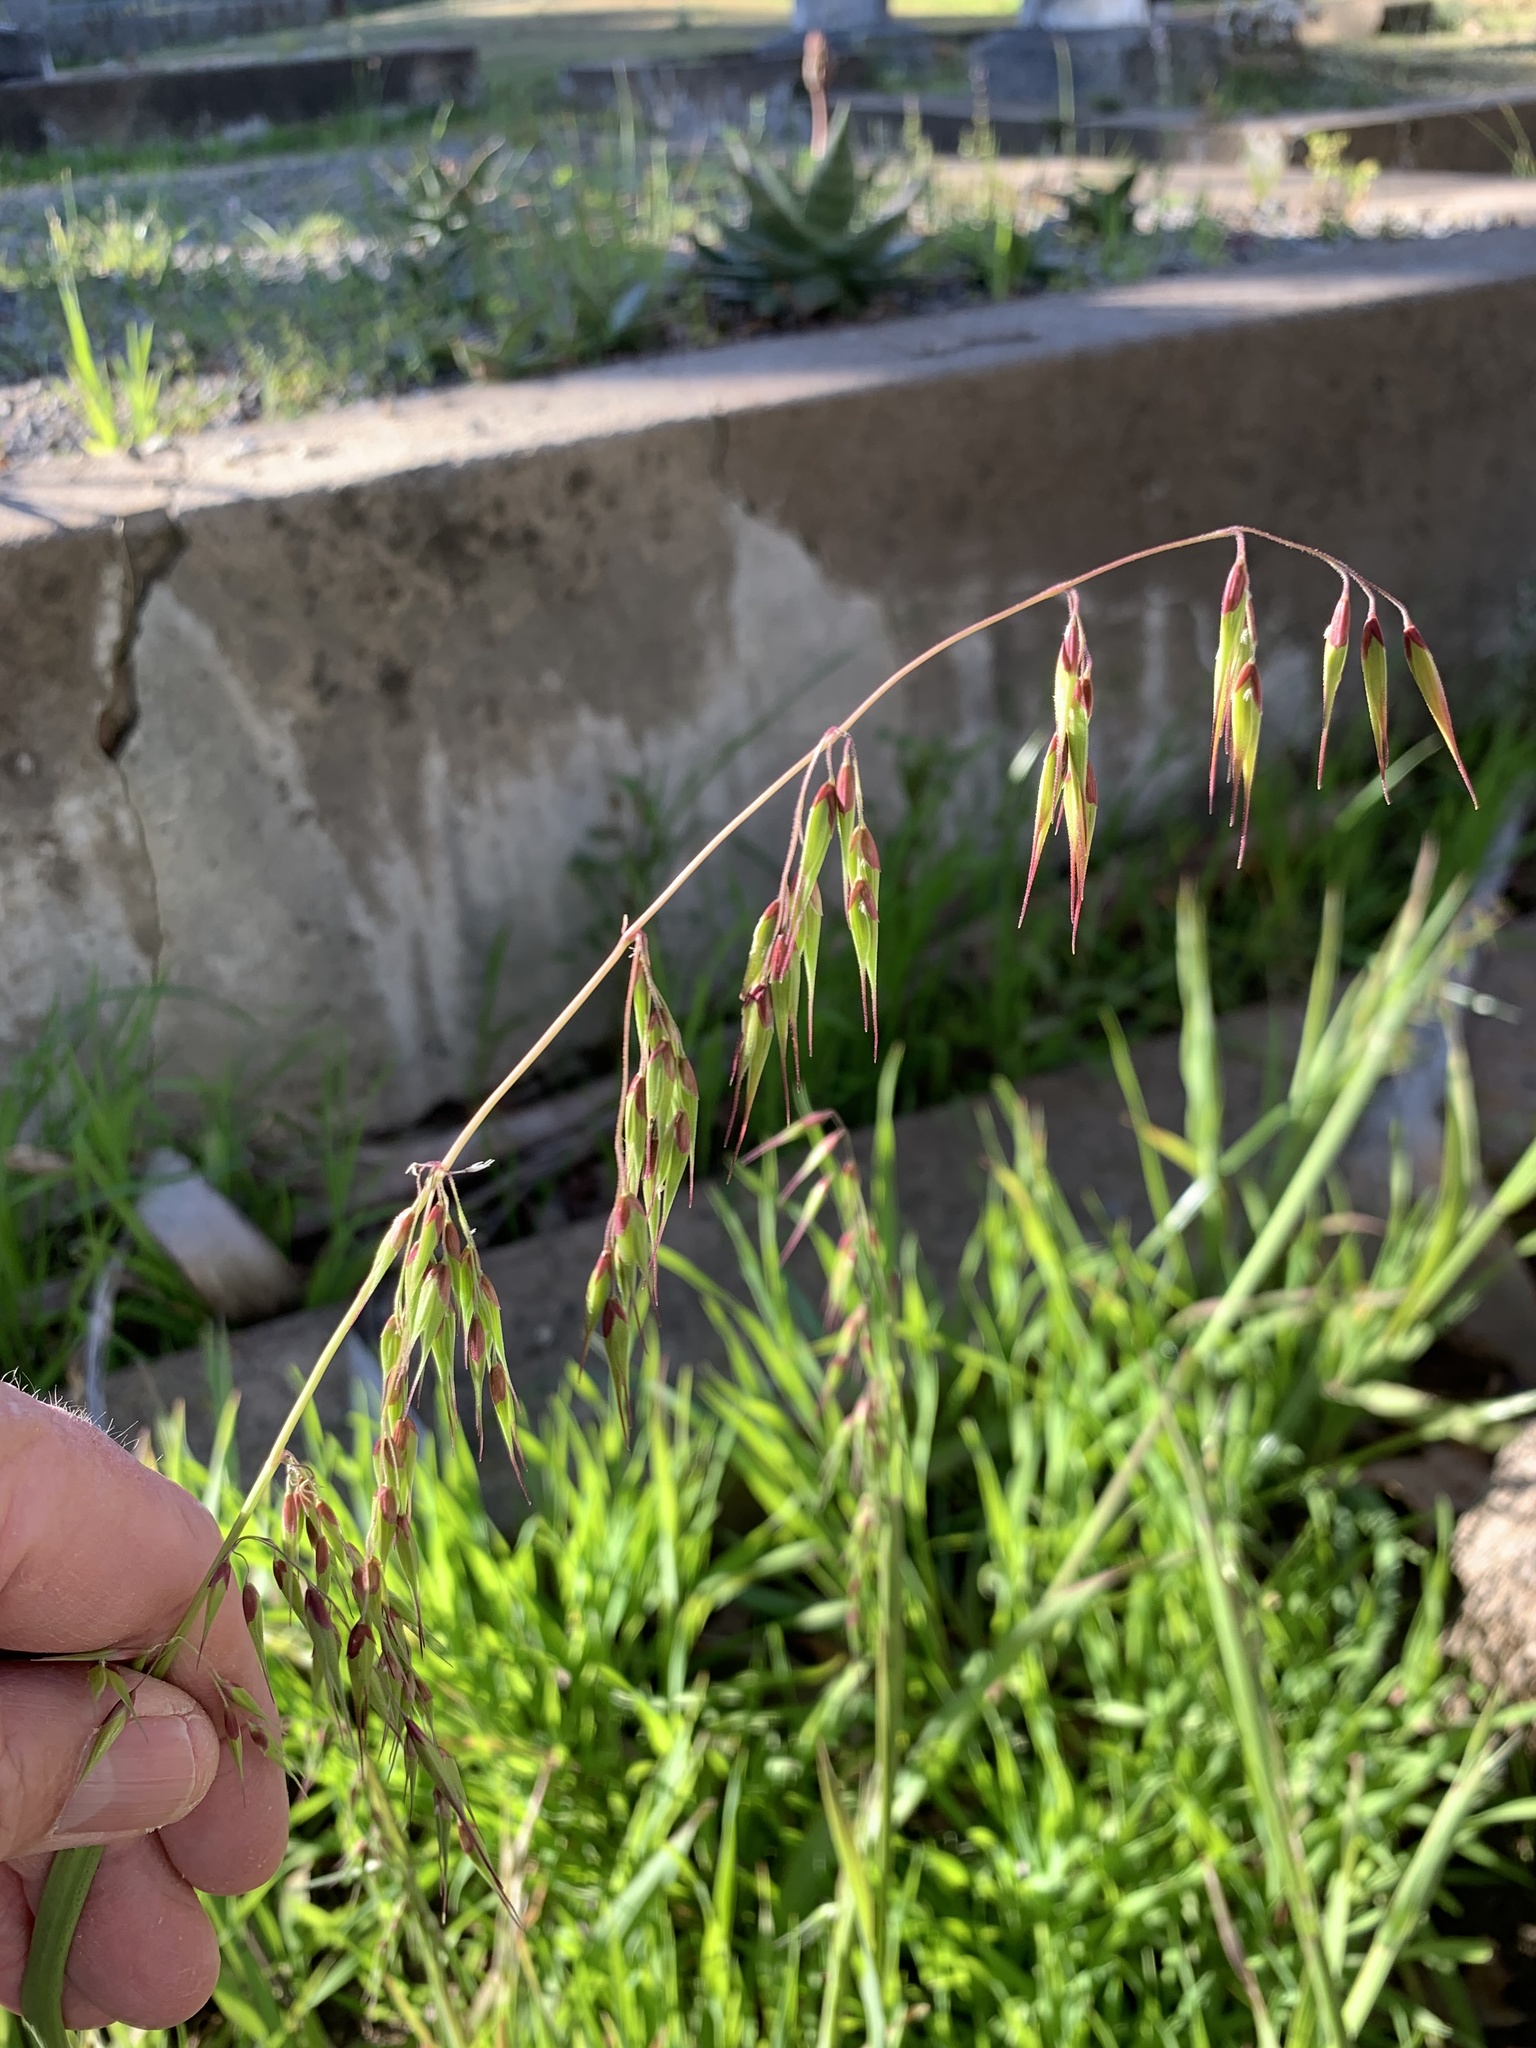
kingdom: Plantae
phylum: Tracheophyta
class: Liliopsida
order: Poales
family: Poaceae
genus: Ehrharta
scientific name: Ehrharta longiflora
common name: Longflowered veldtgrass
